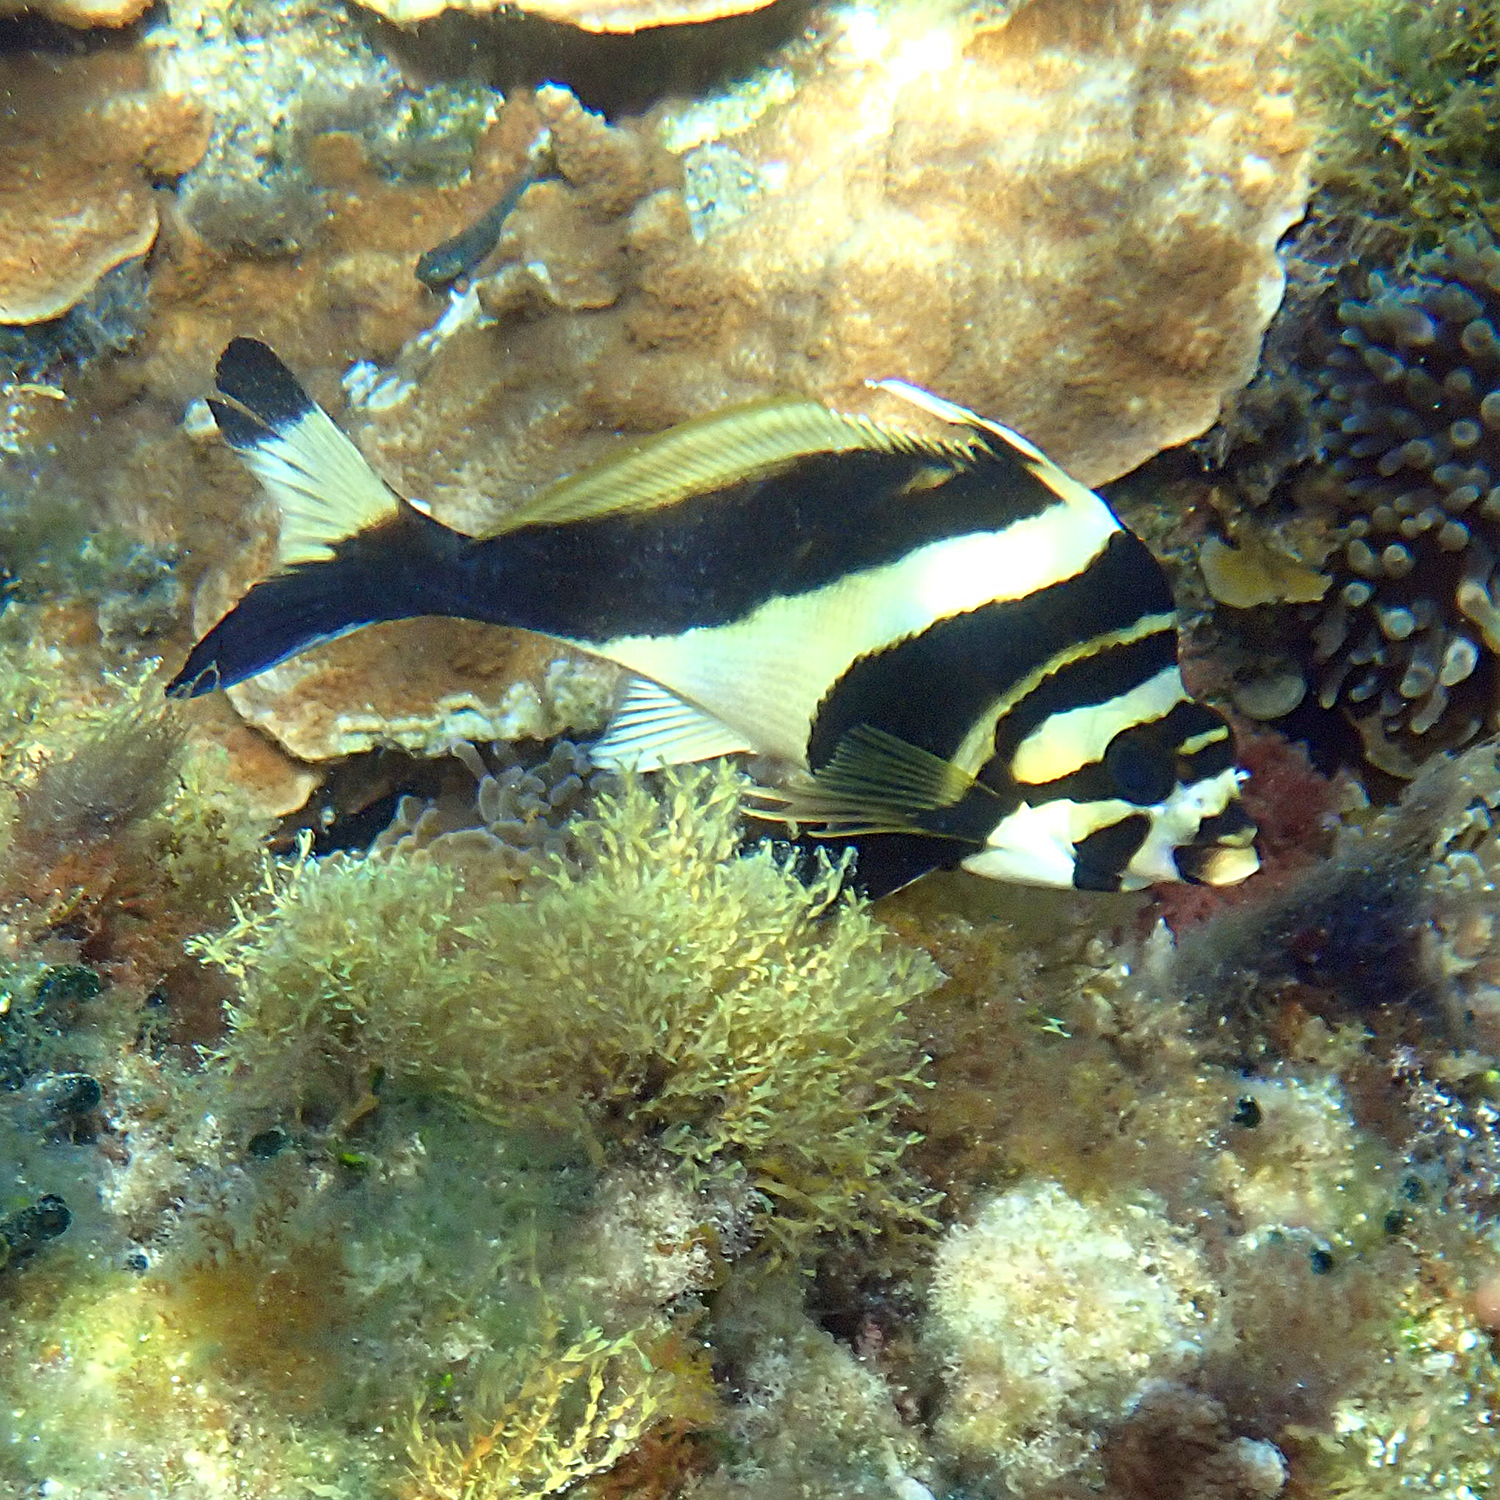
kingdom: Animalia
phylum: Chordata
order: Perciformes
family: Cheilodactylidae
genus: Cheilodactylus
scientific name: Cheilodactylus francisi
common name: Blacktip morwong
